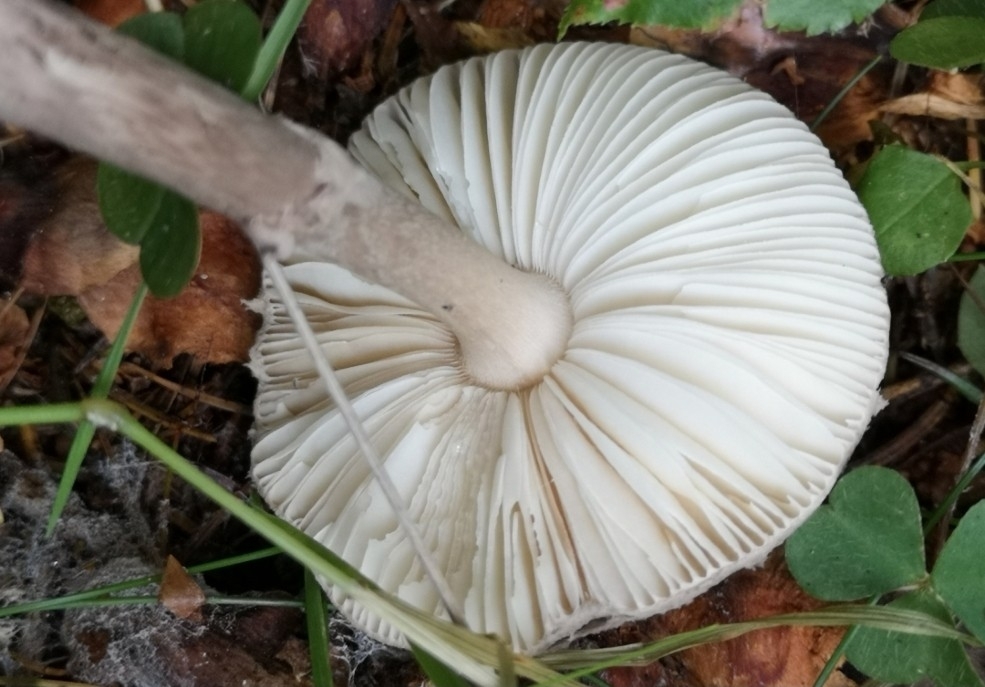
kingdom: Fungi
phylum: Basidiomycota
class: Agaricomycetes
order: Agaricales
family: Amanitaceae
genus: Amanita
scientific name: Amanita porphyria
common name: Grey veiled amanita
